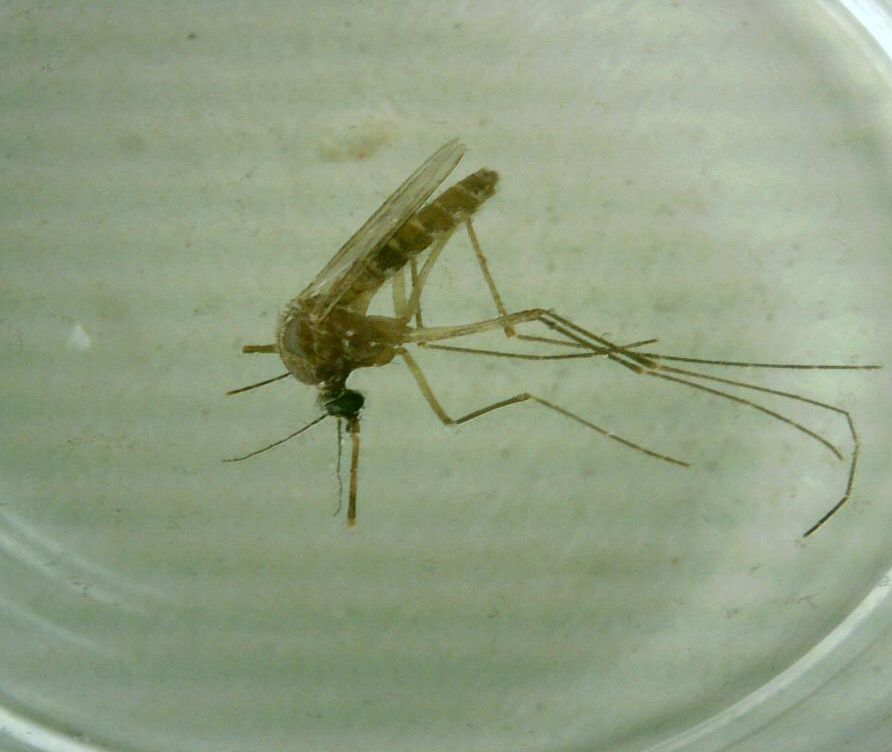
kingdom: Animalia
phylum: Arthropoda
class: Insecta
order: Diptera
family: Culicidae
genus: Culex
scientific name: Culex quinquefasciatus
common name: Southern house mosquito
